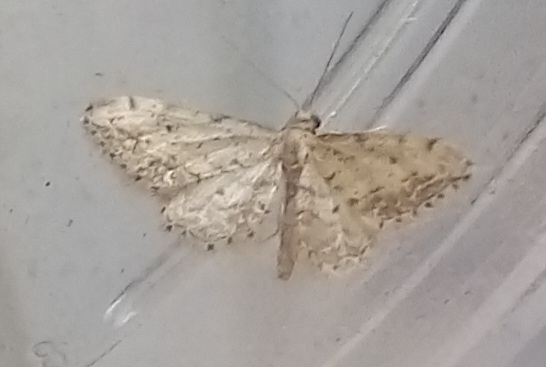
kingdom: Animalia
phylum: Arthropoda
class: Insecta
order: Lepidoptera
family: Geometridae
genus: Idaea
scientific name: Idaea incisaria
